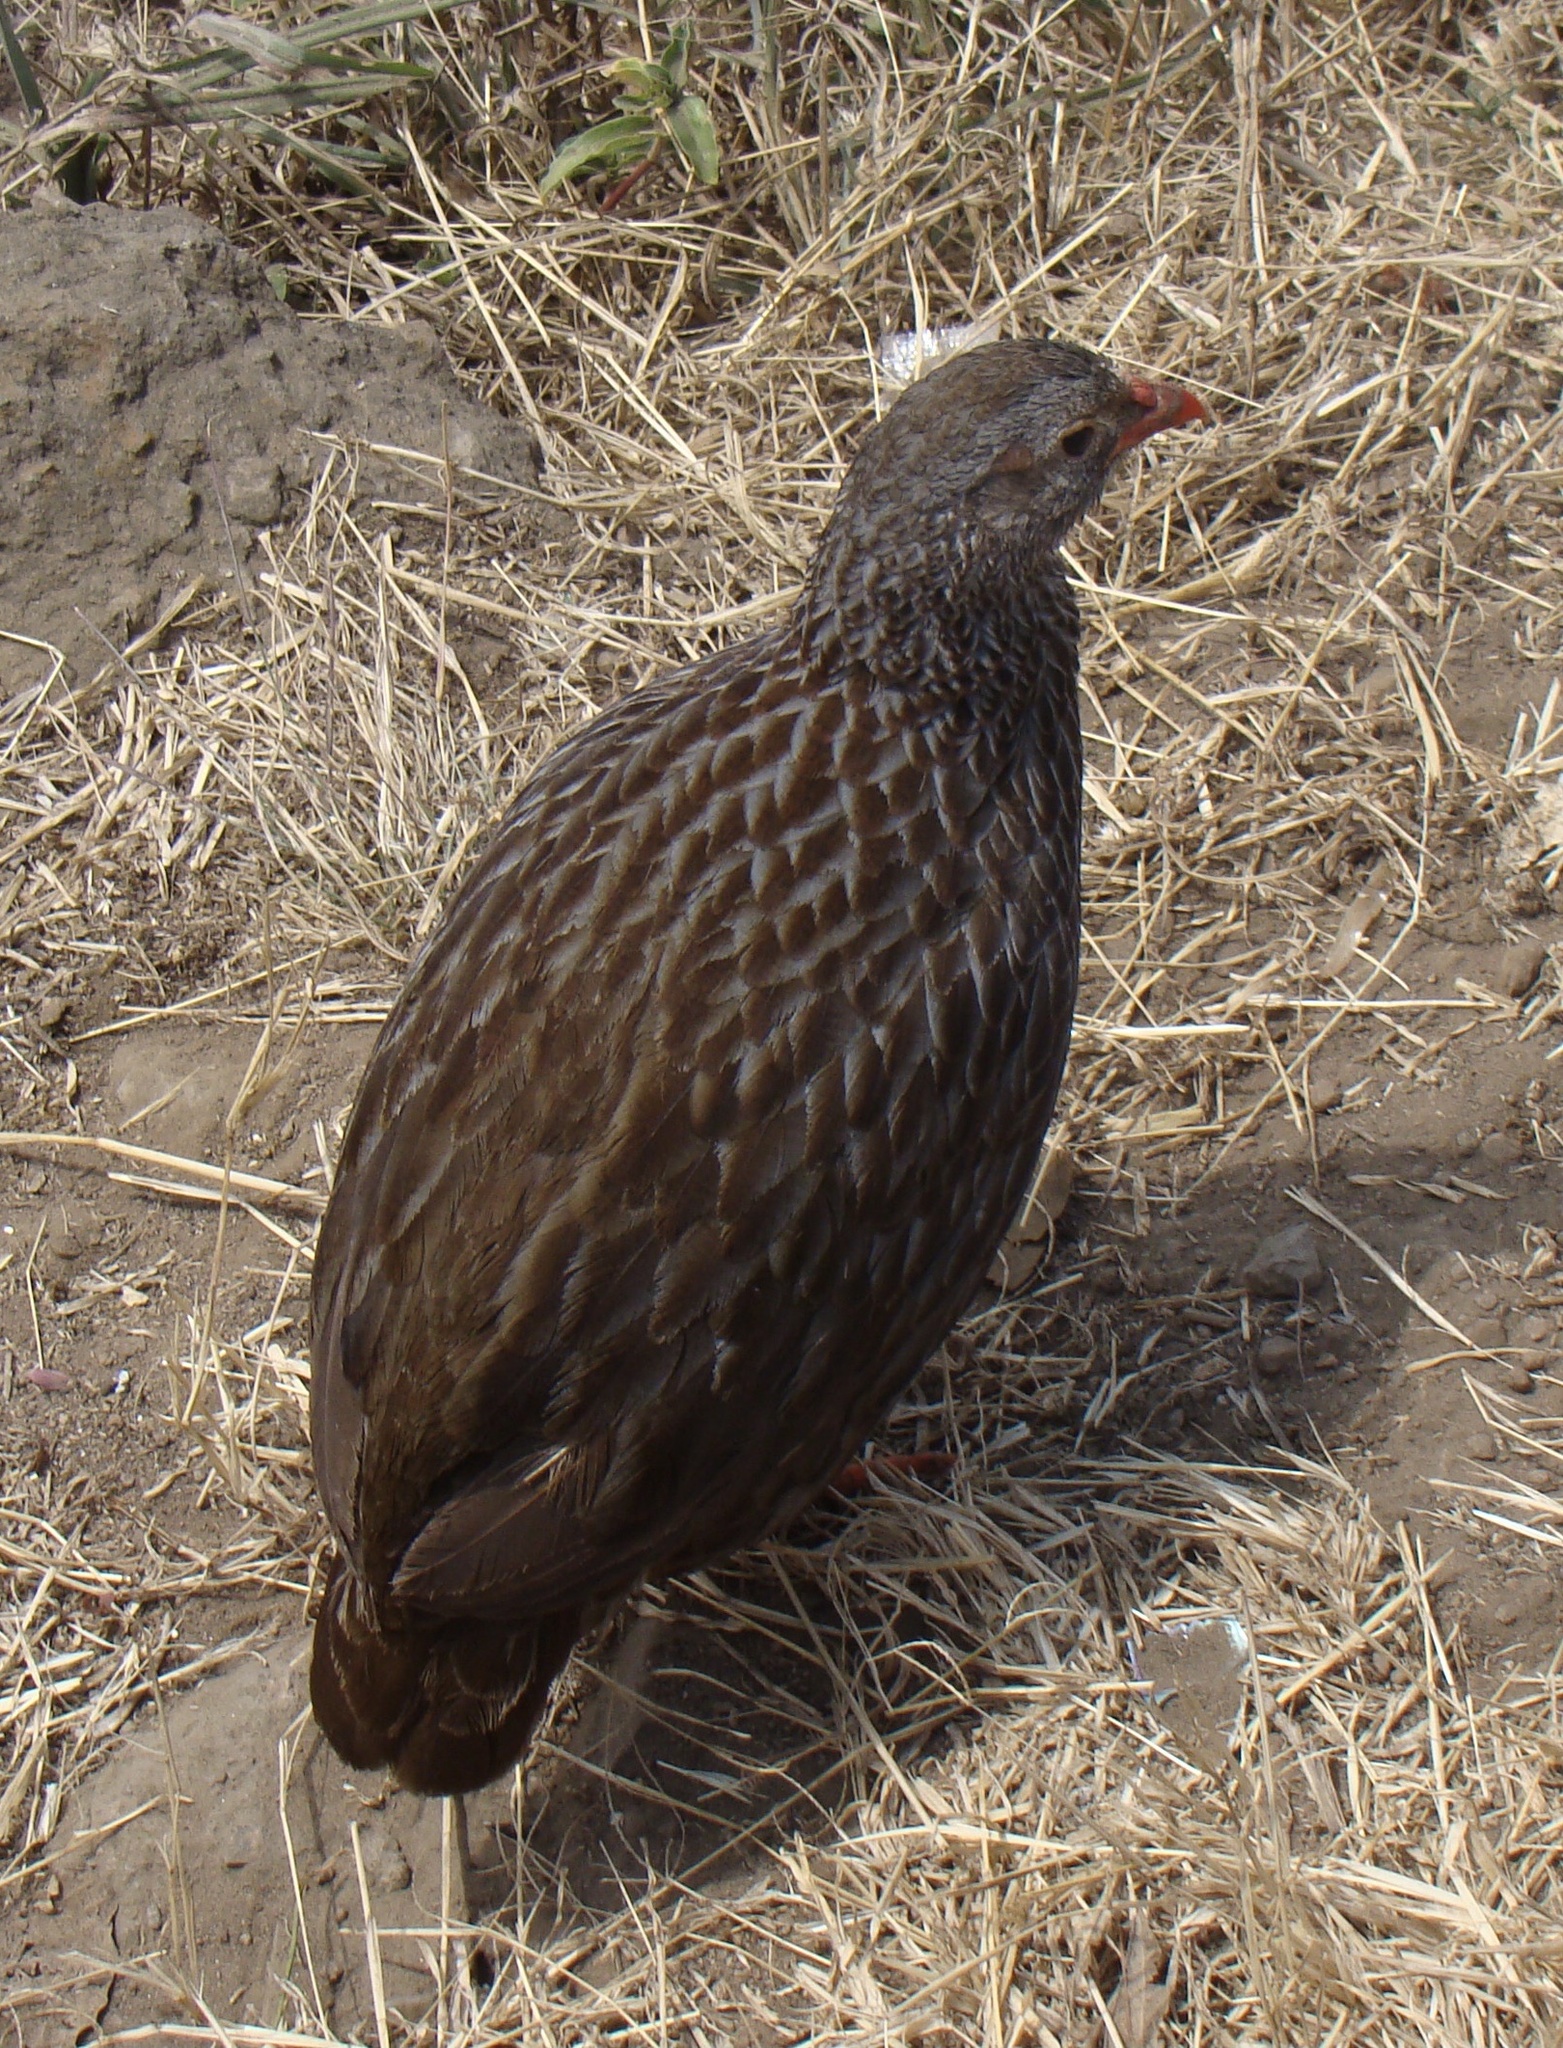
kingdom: Animalia
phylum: Chordata
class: Aves
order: Galliformes
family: Phasianidae
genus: Pternistis
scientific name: Pternistis squamatus
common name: Scaly francolin
